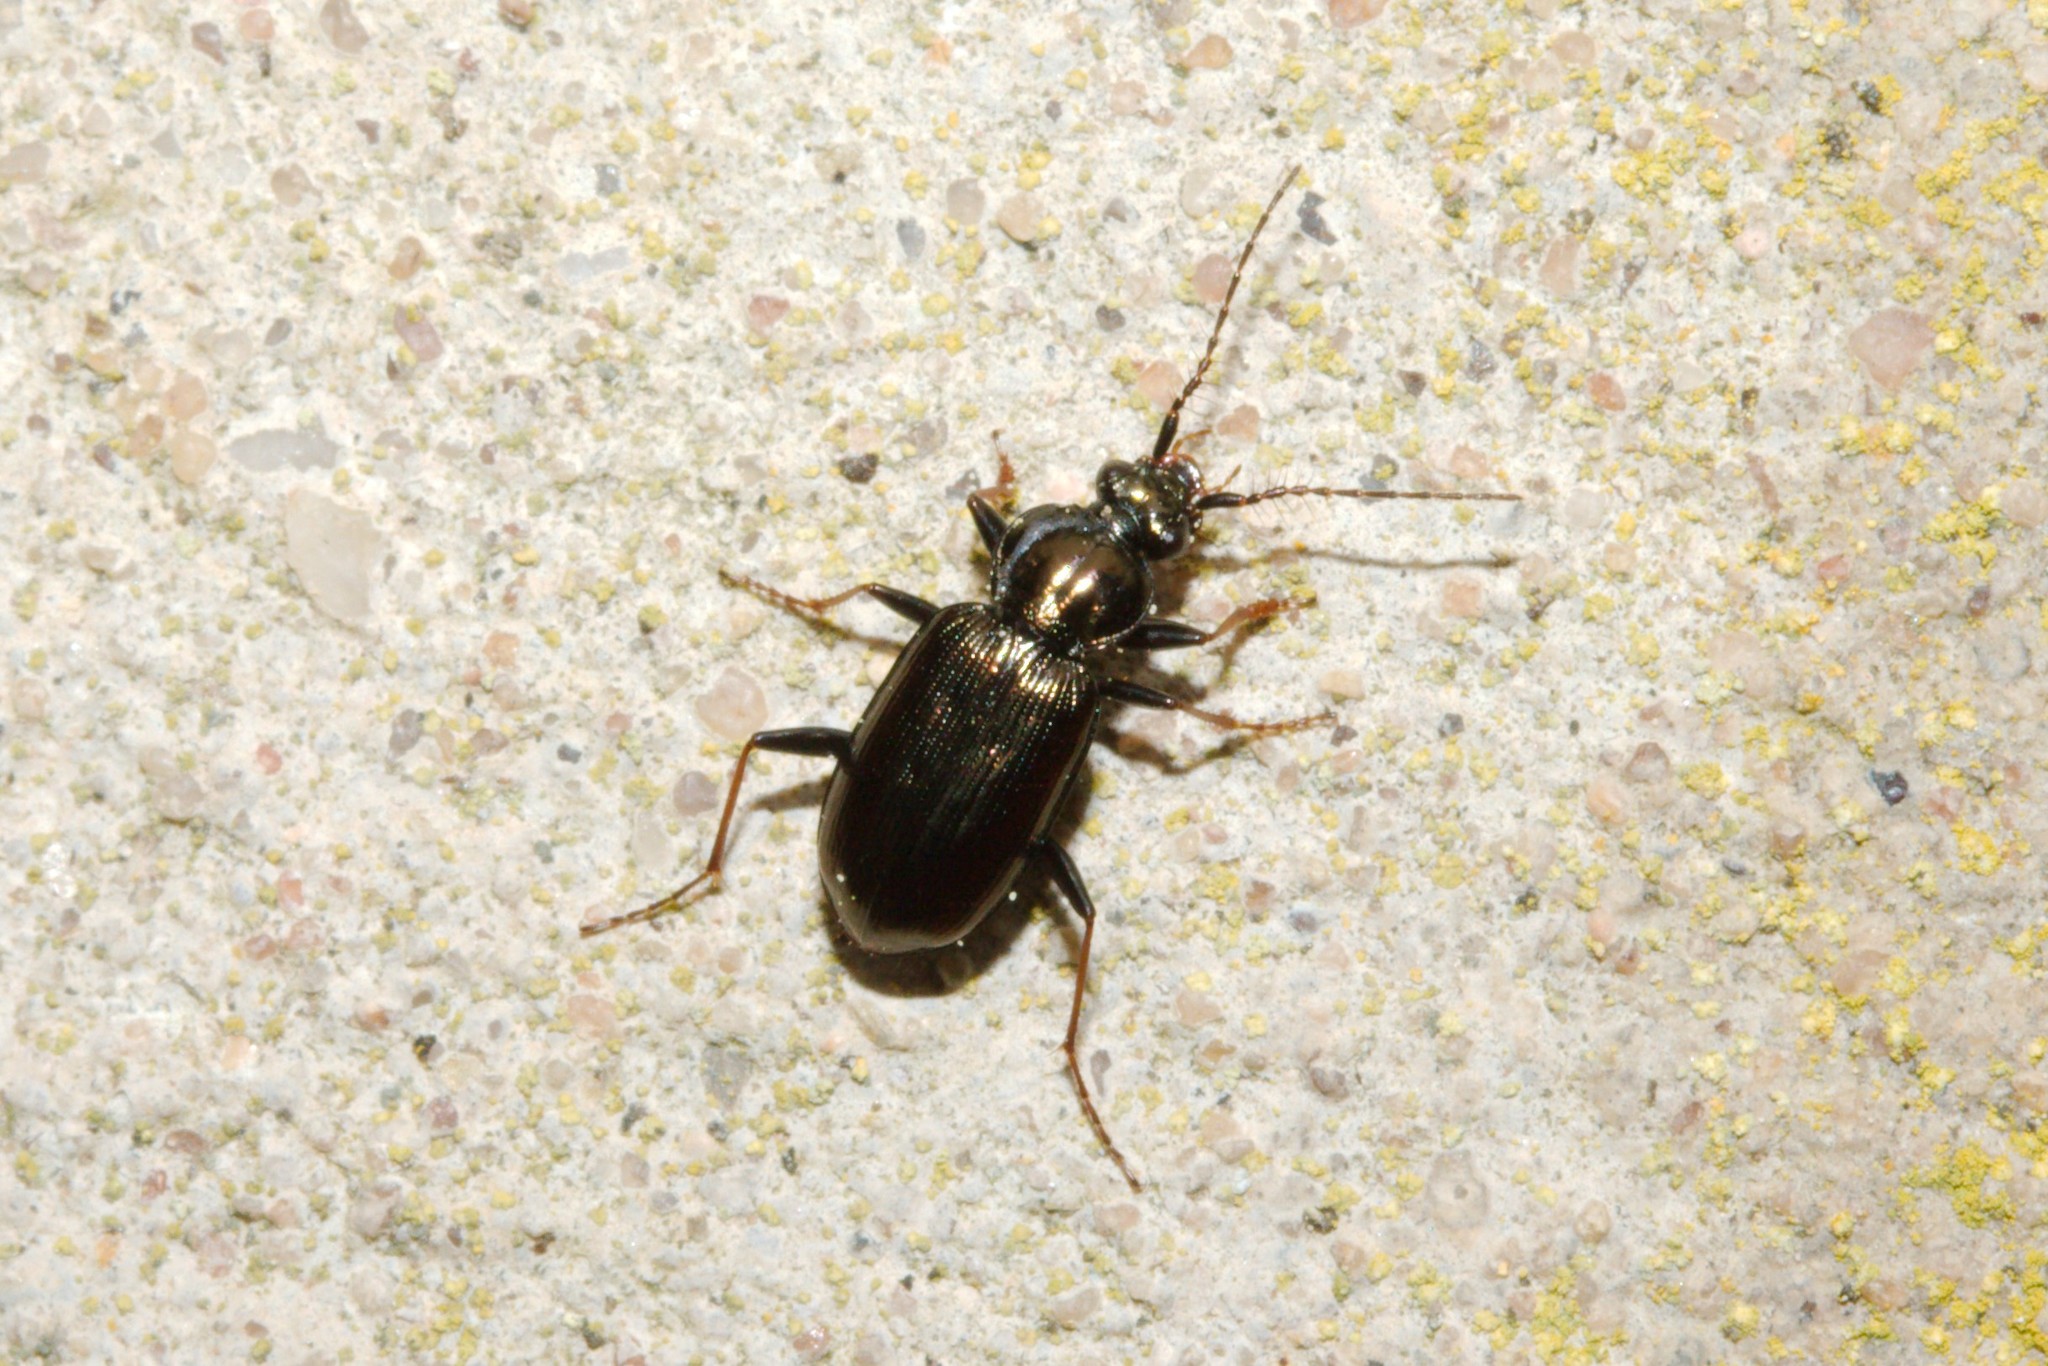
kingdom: Animalia
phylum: Arthropoda
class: Insecta
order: Coleoptera
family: Carabidae
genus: Loricera
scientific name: Loricera pilicornis
